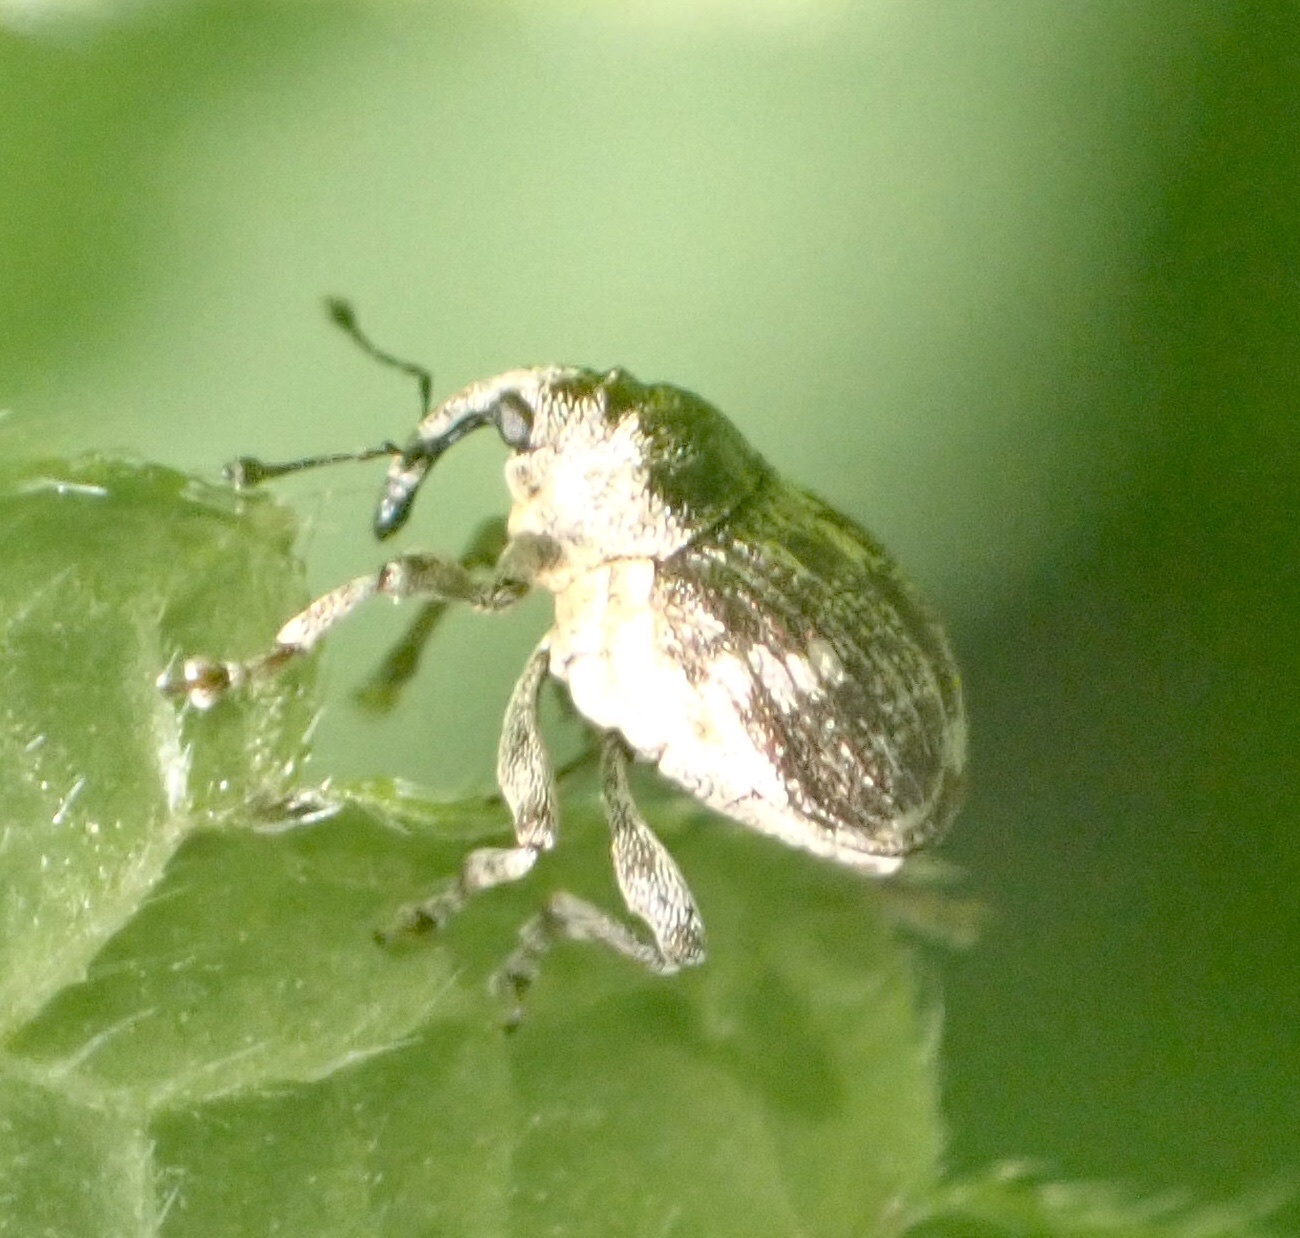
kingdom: Animalia
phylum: Arthropoda
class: Insecta
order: Coleoptera
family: Curculionidae
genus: Nedyus
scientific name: Nedyus quadrimaculatus
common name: Small nettle weevil
